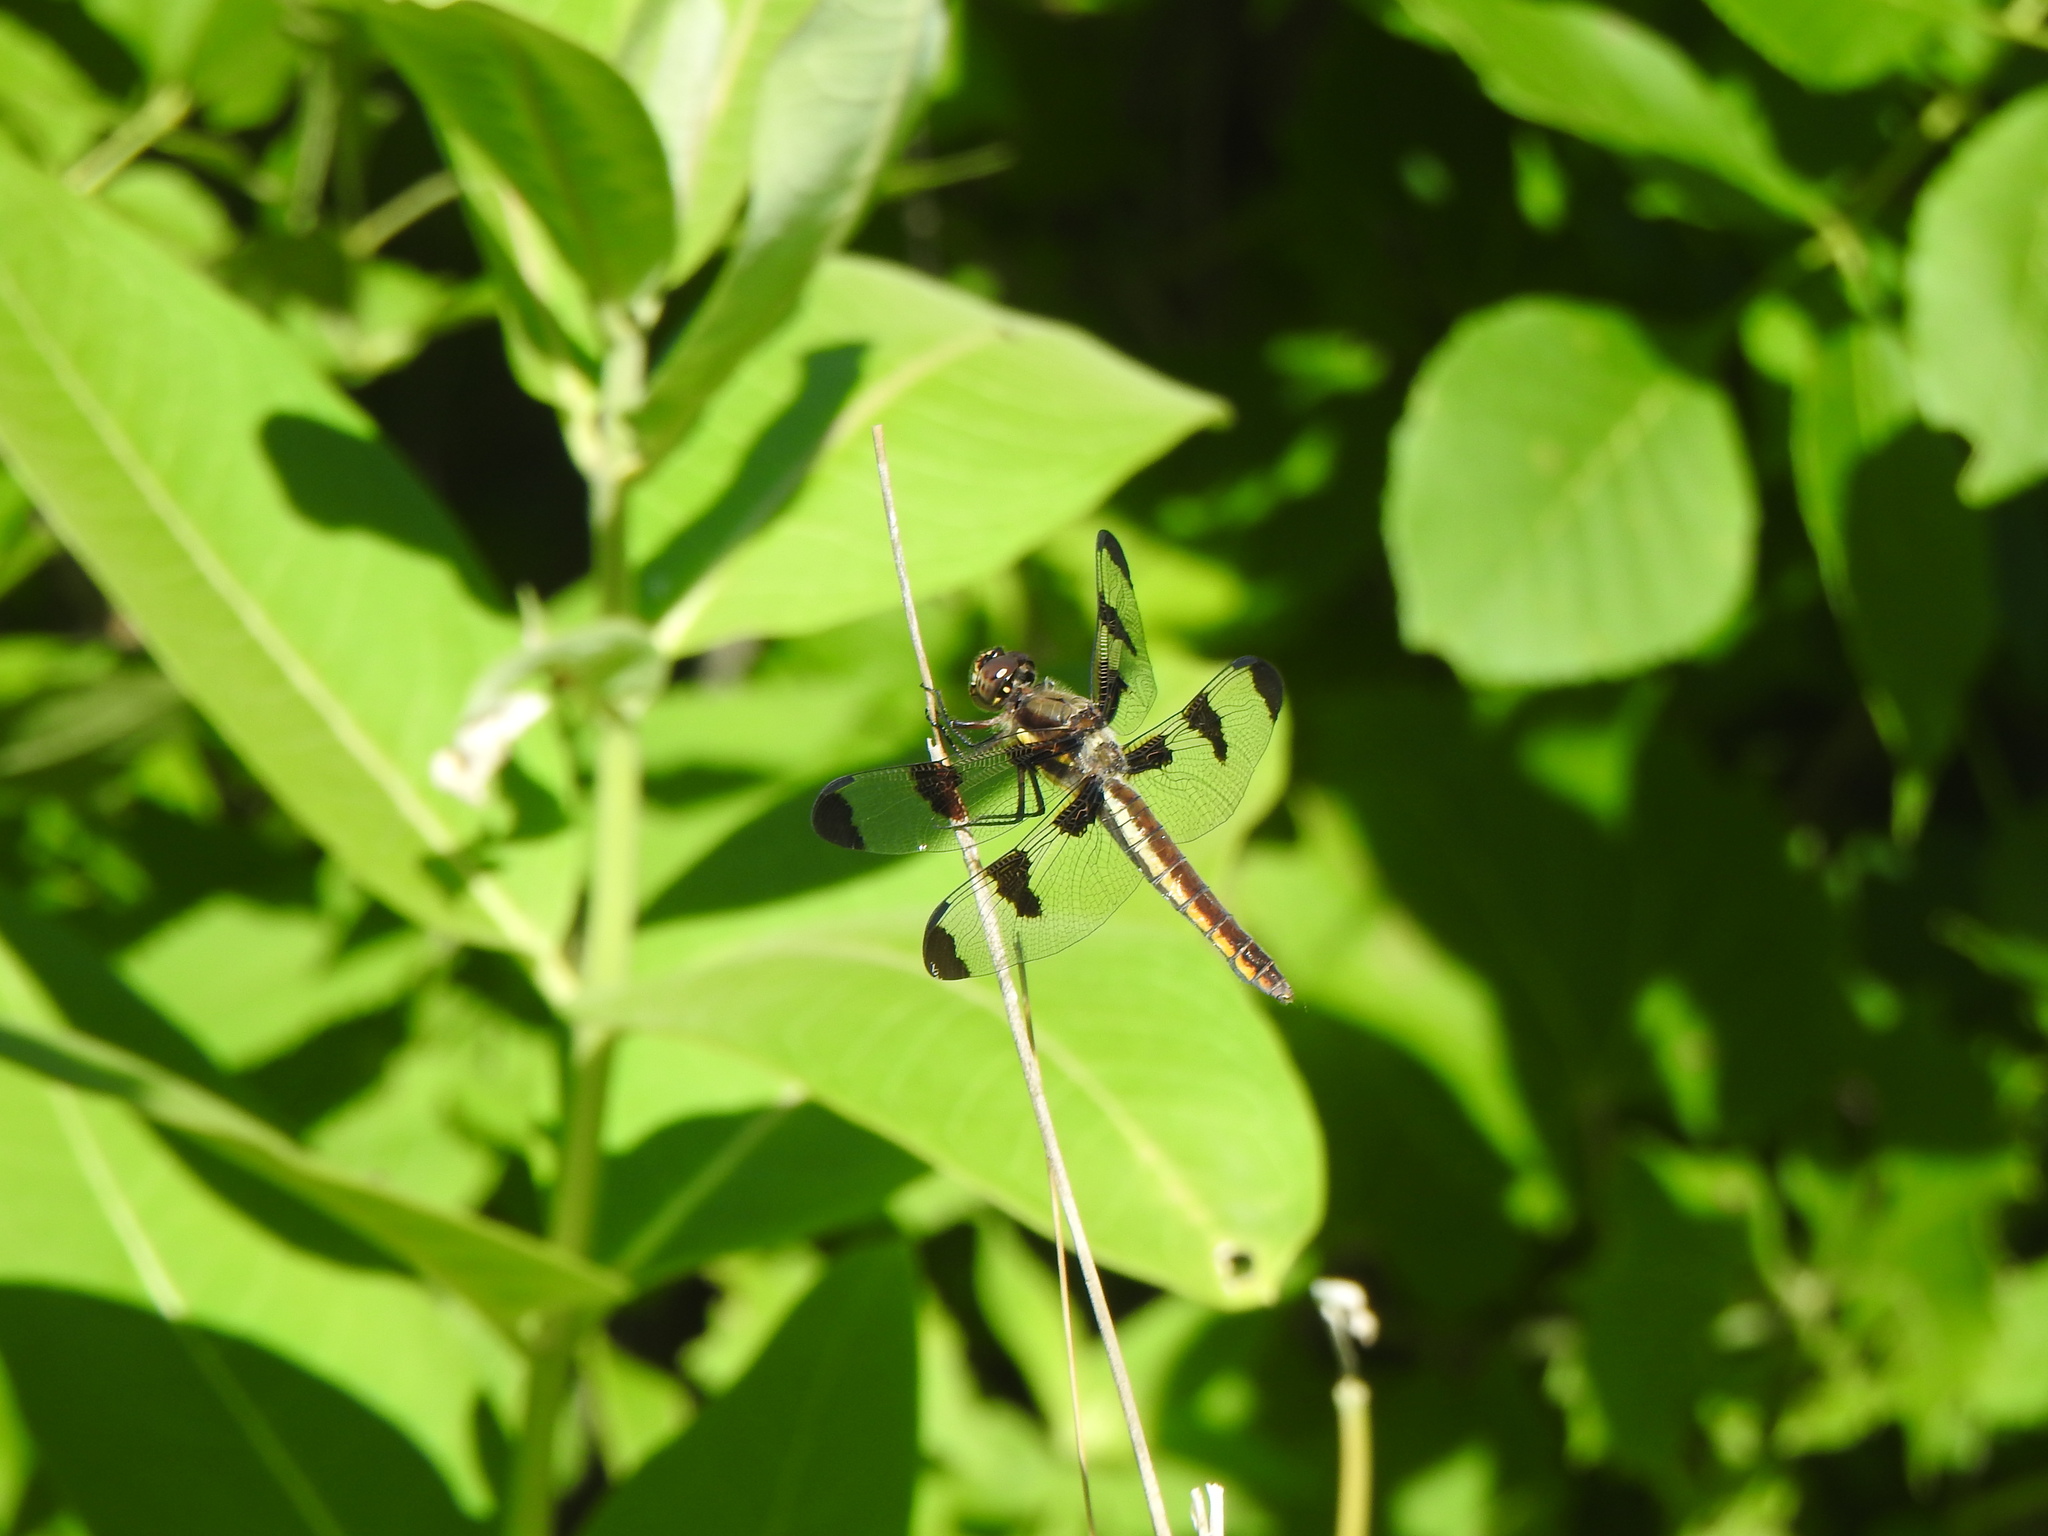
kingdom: Animalia
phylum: Arthropoda
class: Insecta
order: Odonata
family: Libellulidae
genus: Libellula
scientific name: Libellula pulchella
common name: Twelve-spotted skimmer
